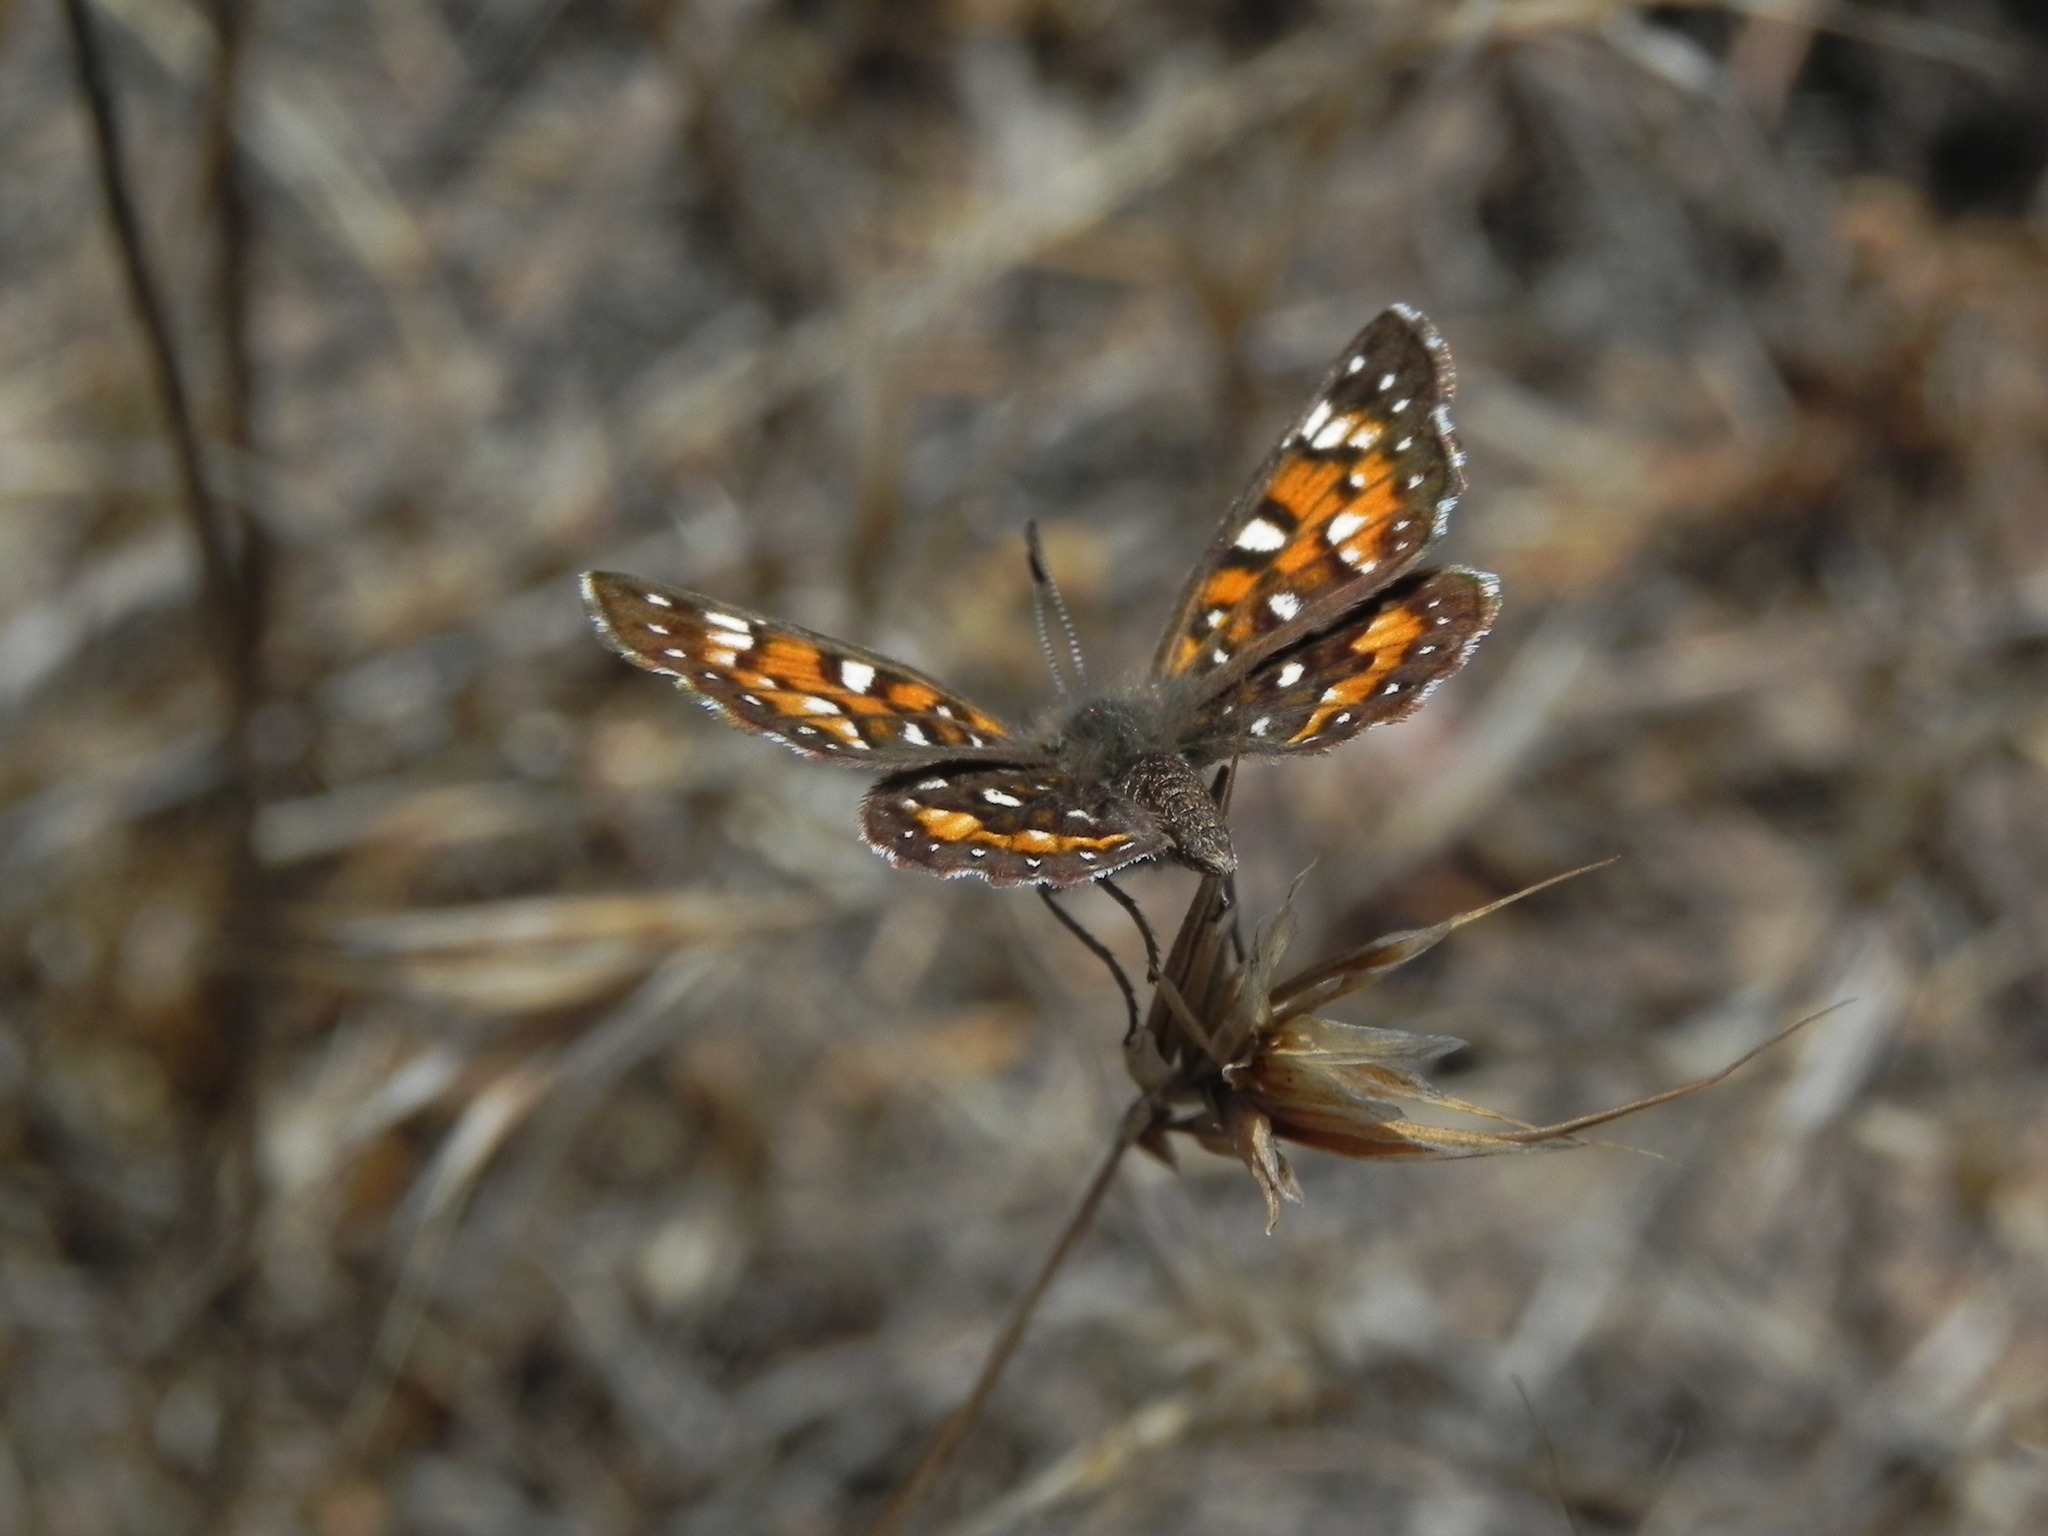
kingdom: Animalia
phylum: Arthropoda
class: Insecta
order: Lepidoptera
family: Riodinidae
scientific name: Riodinidae
